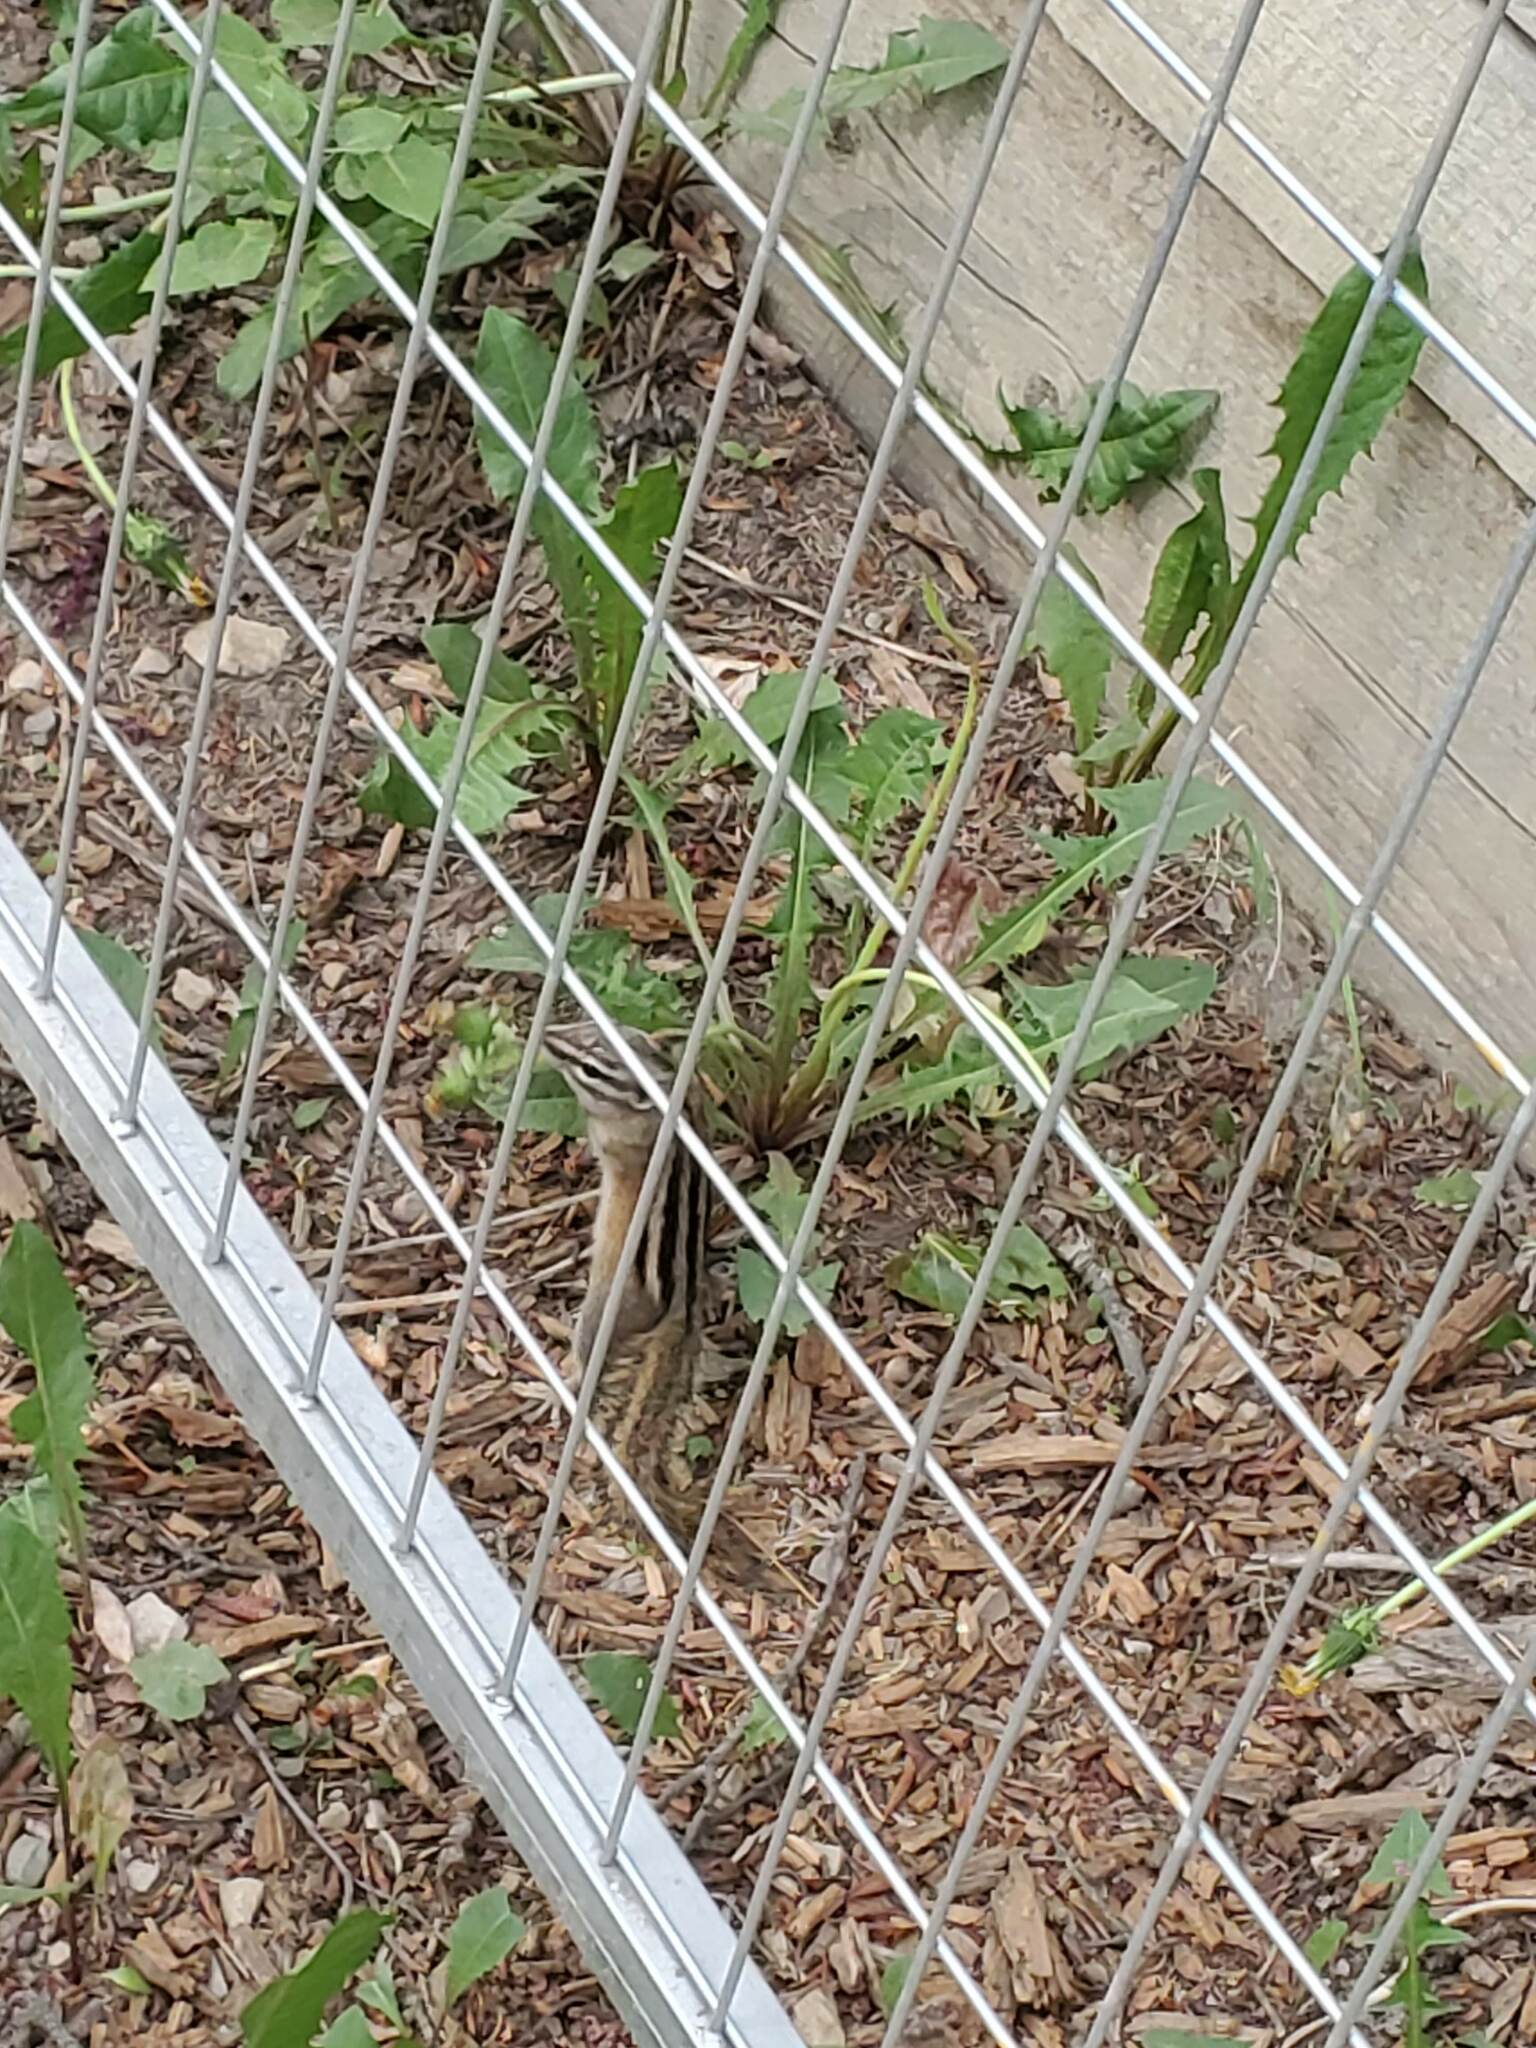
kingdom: Animalia
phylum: Chordata
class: Mammalia
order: Rodentia
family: Sciuridae
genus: Tamias
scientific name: Tamias minimus
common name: Least chipmunk
